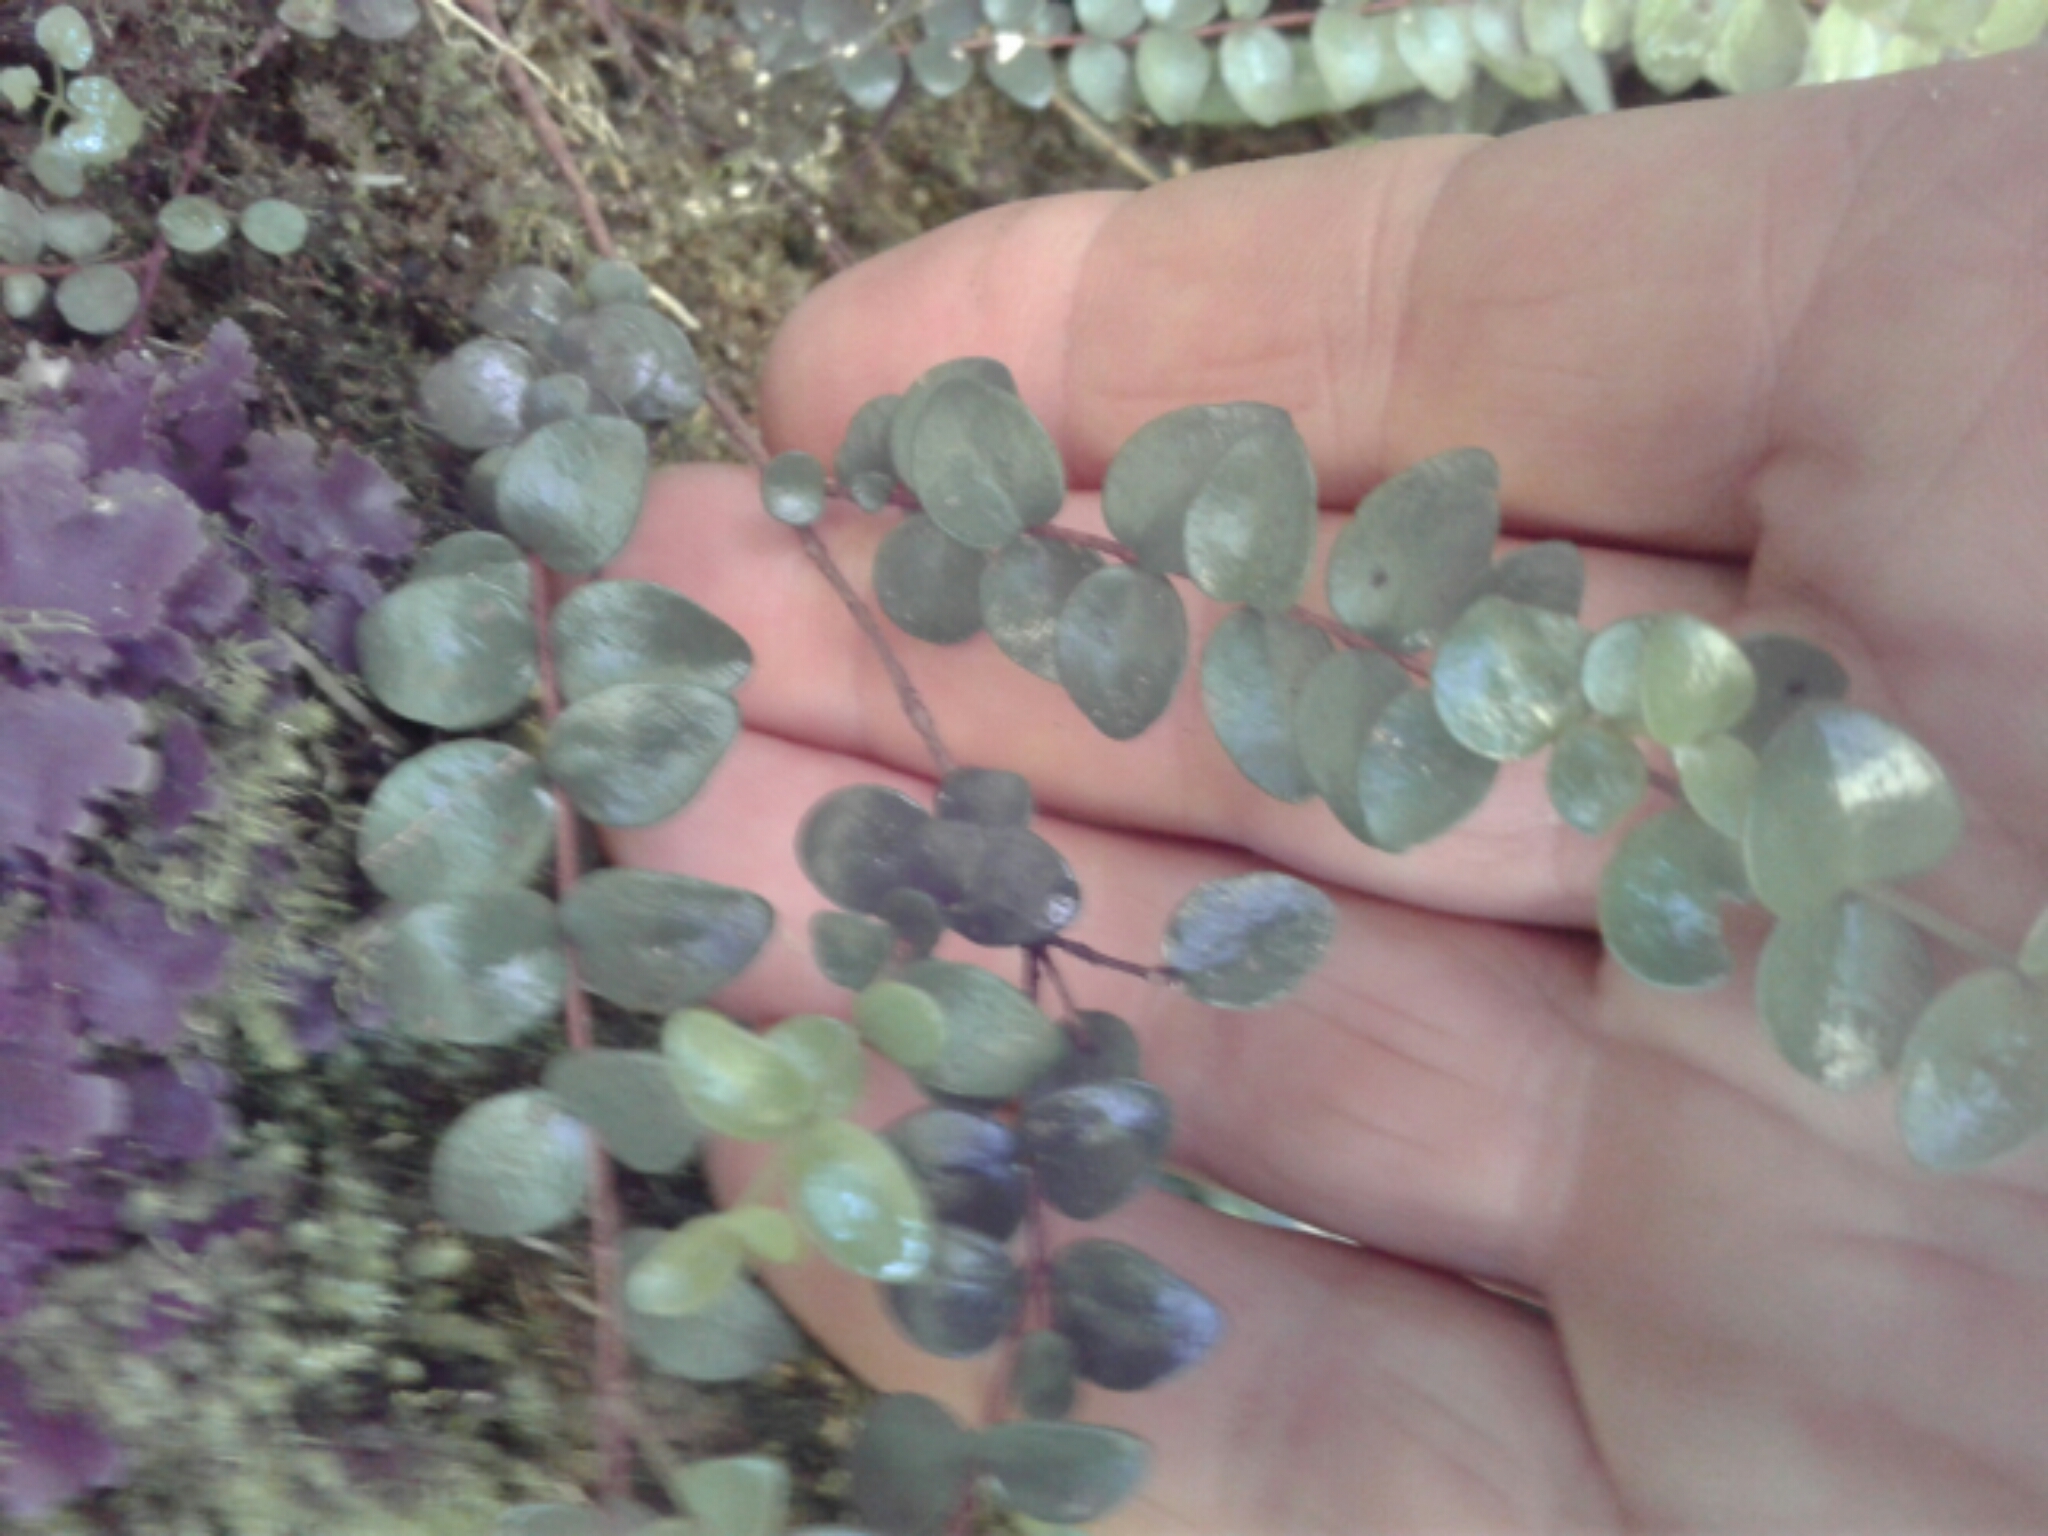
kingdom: Plantae
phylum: Tracheophyta
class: Magnoliopsida
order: Myrtales
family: Myrtaceae
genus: Metrosideros
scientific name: Metrosideros diffusa
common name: Small ratavine
